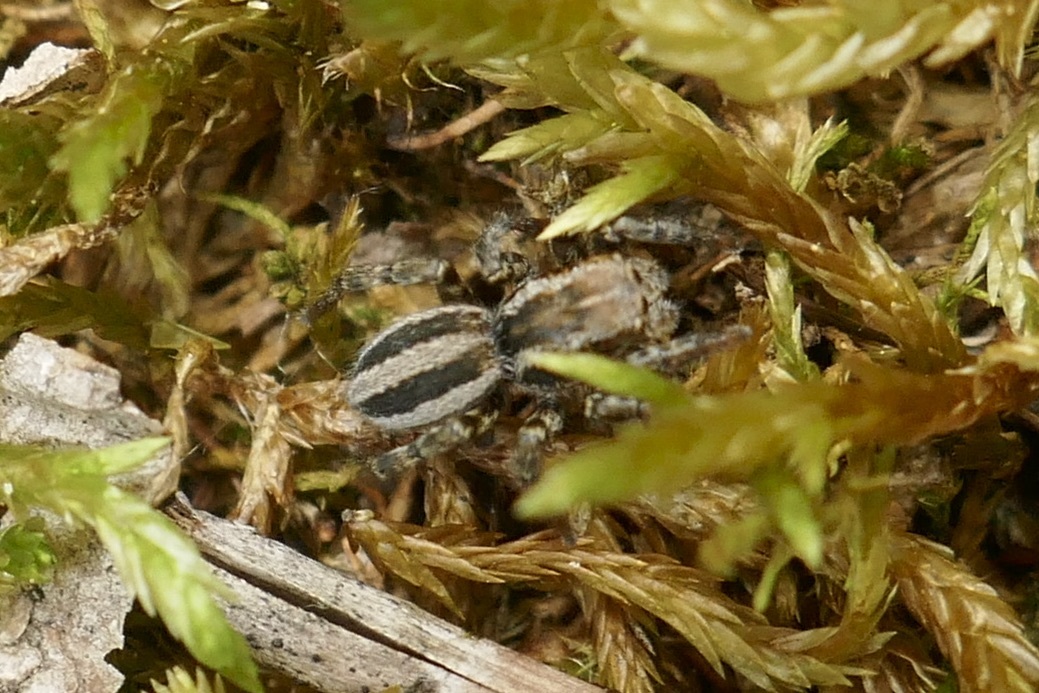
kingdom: Animalia
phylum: Arthropoda
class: Arachnida
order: Araneae
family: Salticidae
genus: Phlegra
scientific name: Phlegra fasciata
